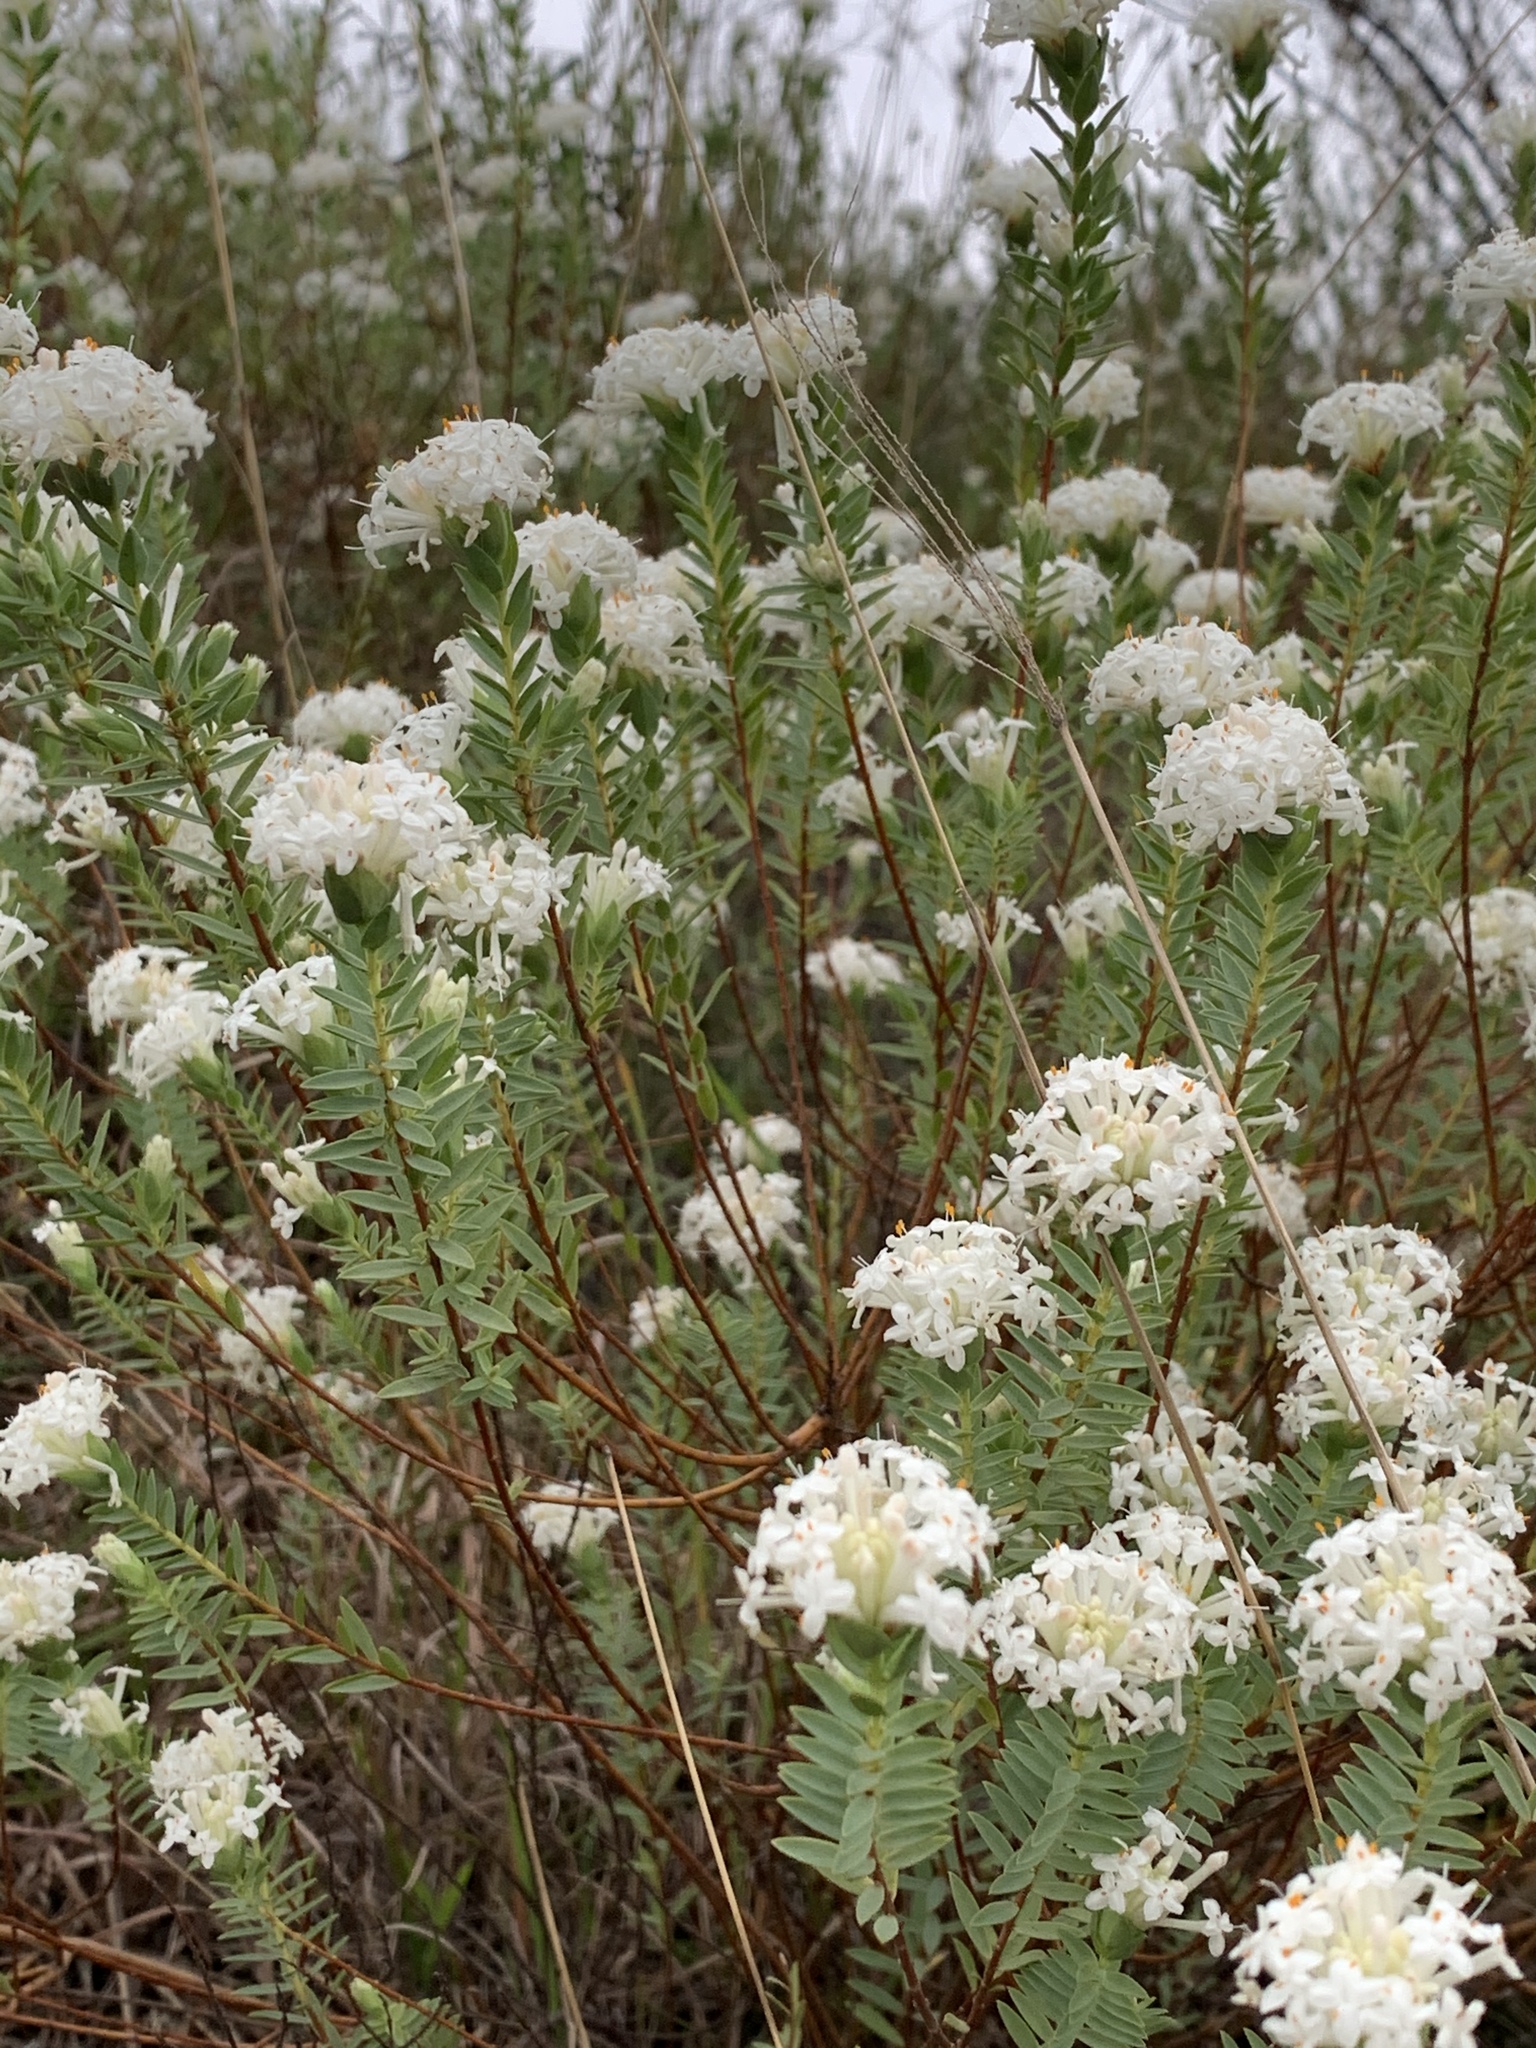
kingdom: Plantae
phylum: Tracheophyta
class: Magnoliopsida
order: Malvales
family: Thymelaeaceae
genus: Pimelea
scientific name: Pimelea glauca
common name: Smooth riceflower
